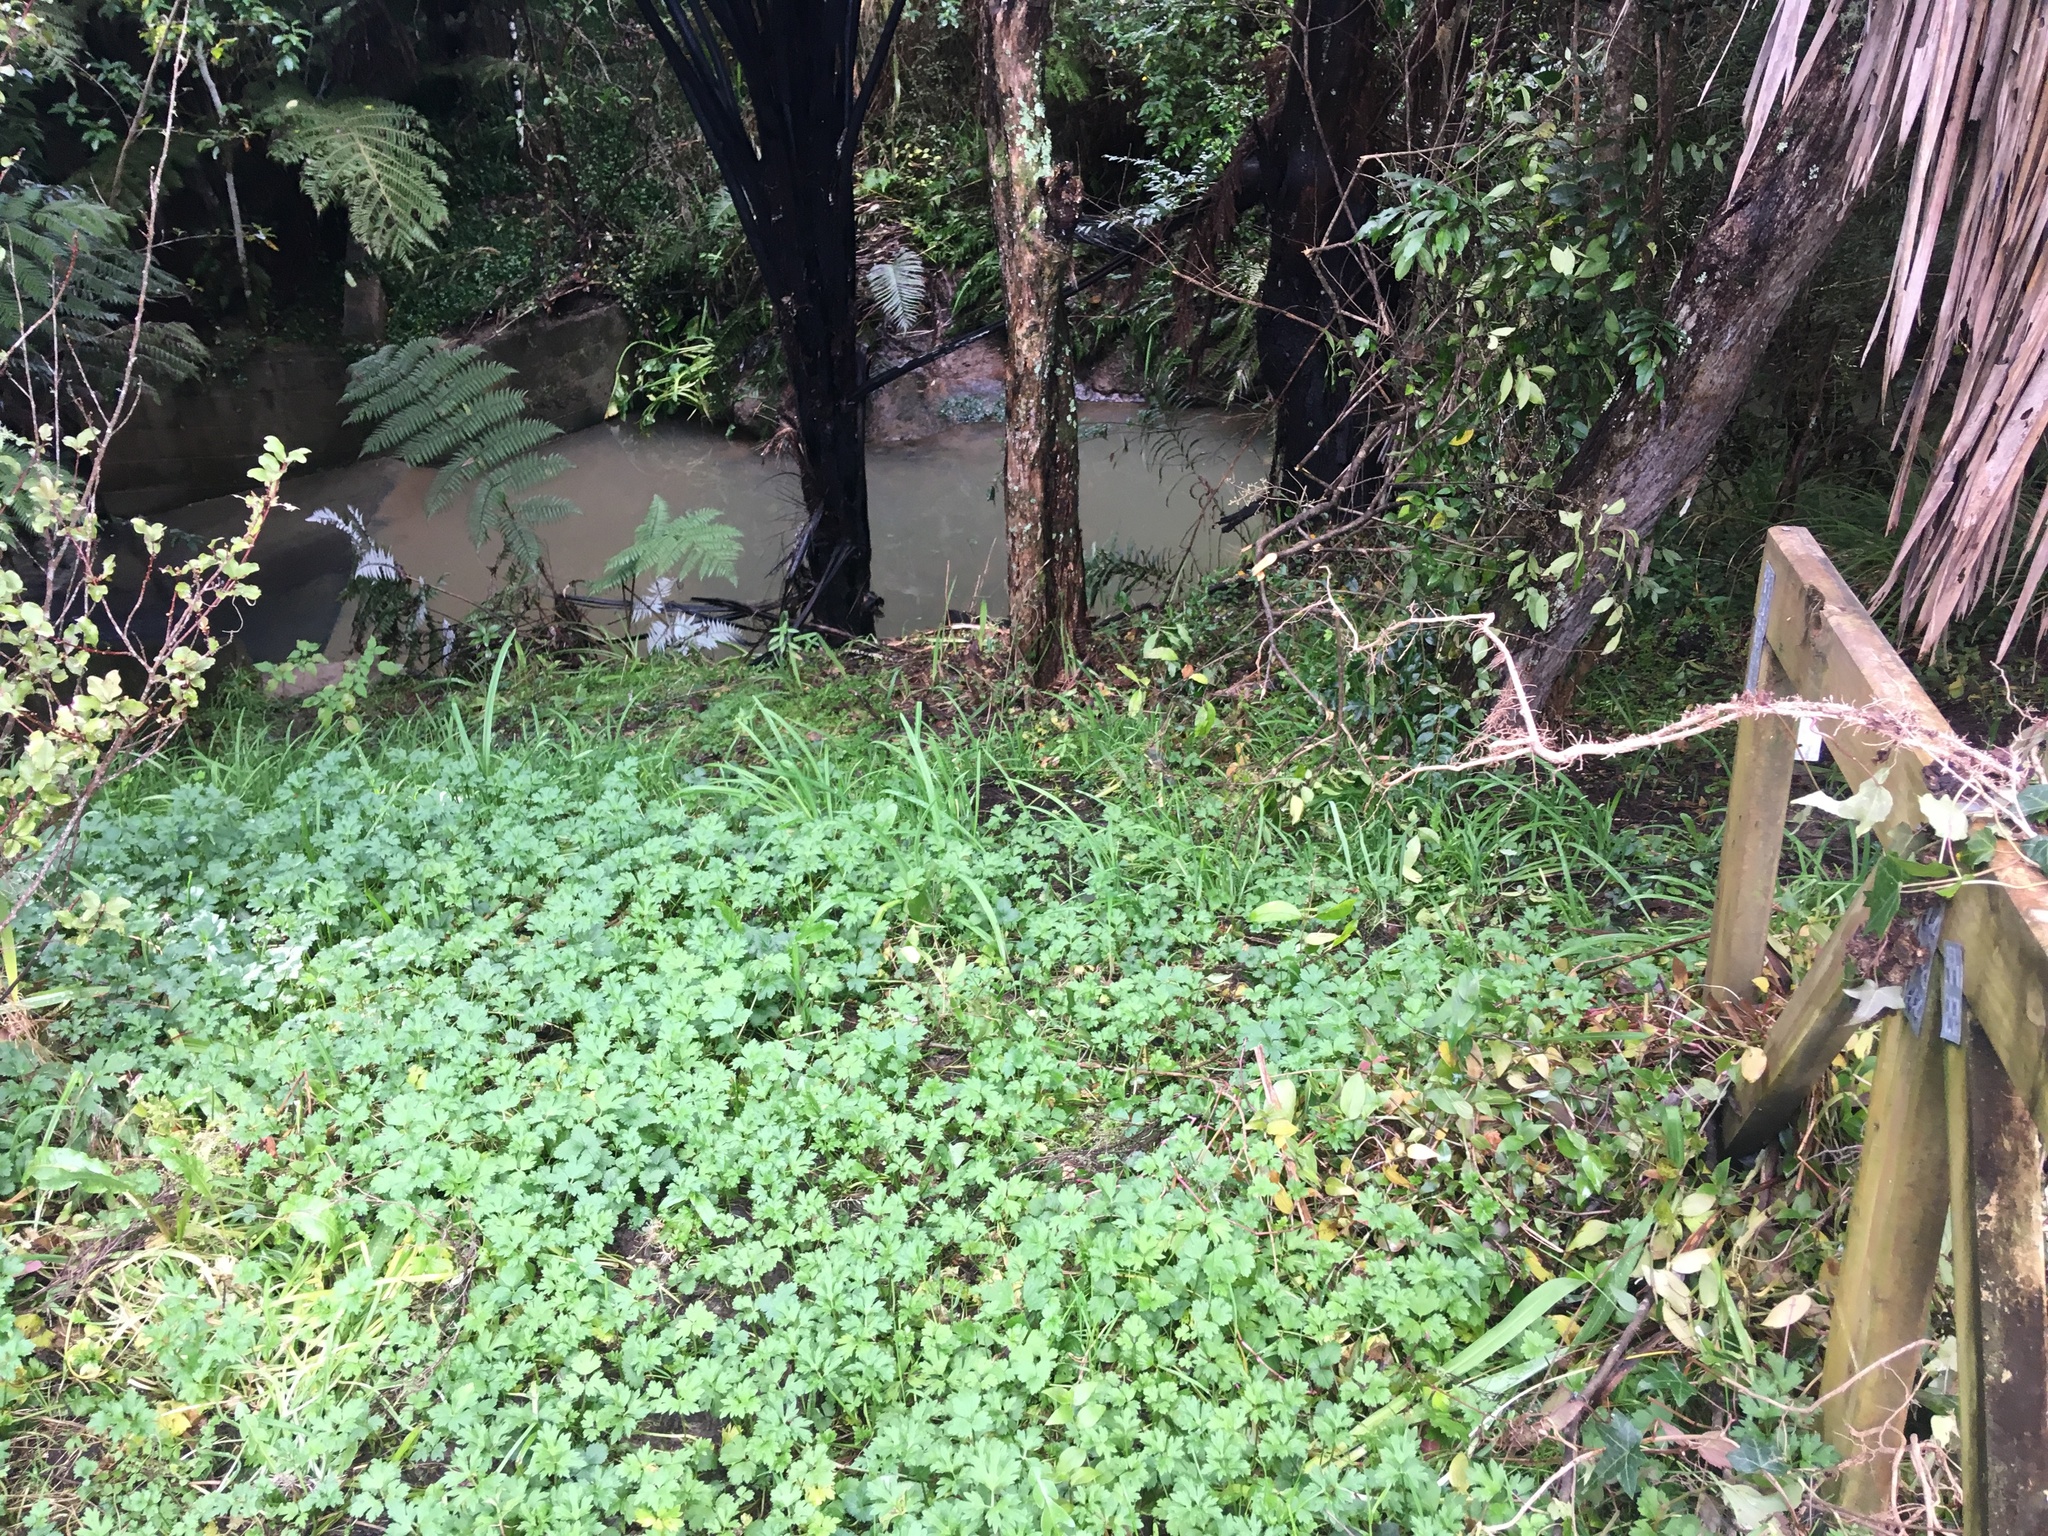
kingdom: Plantae
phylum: Tracheophyta
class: Magnoliopsida
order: Ranunculales
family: Ranunculaceae
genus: Ranunculus
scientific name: Ranunculus repens
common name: Creeping buttercup
